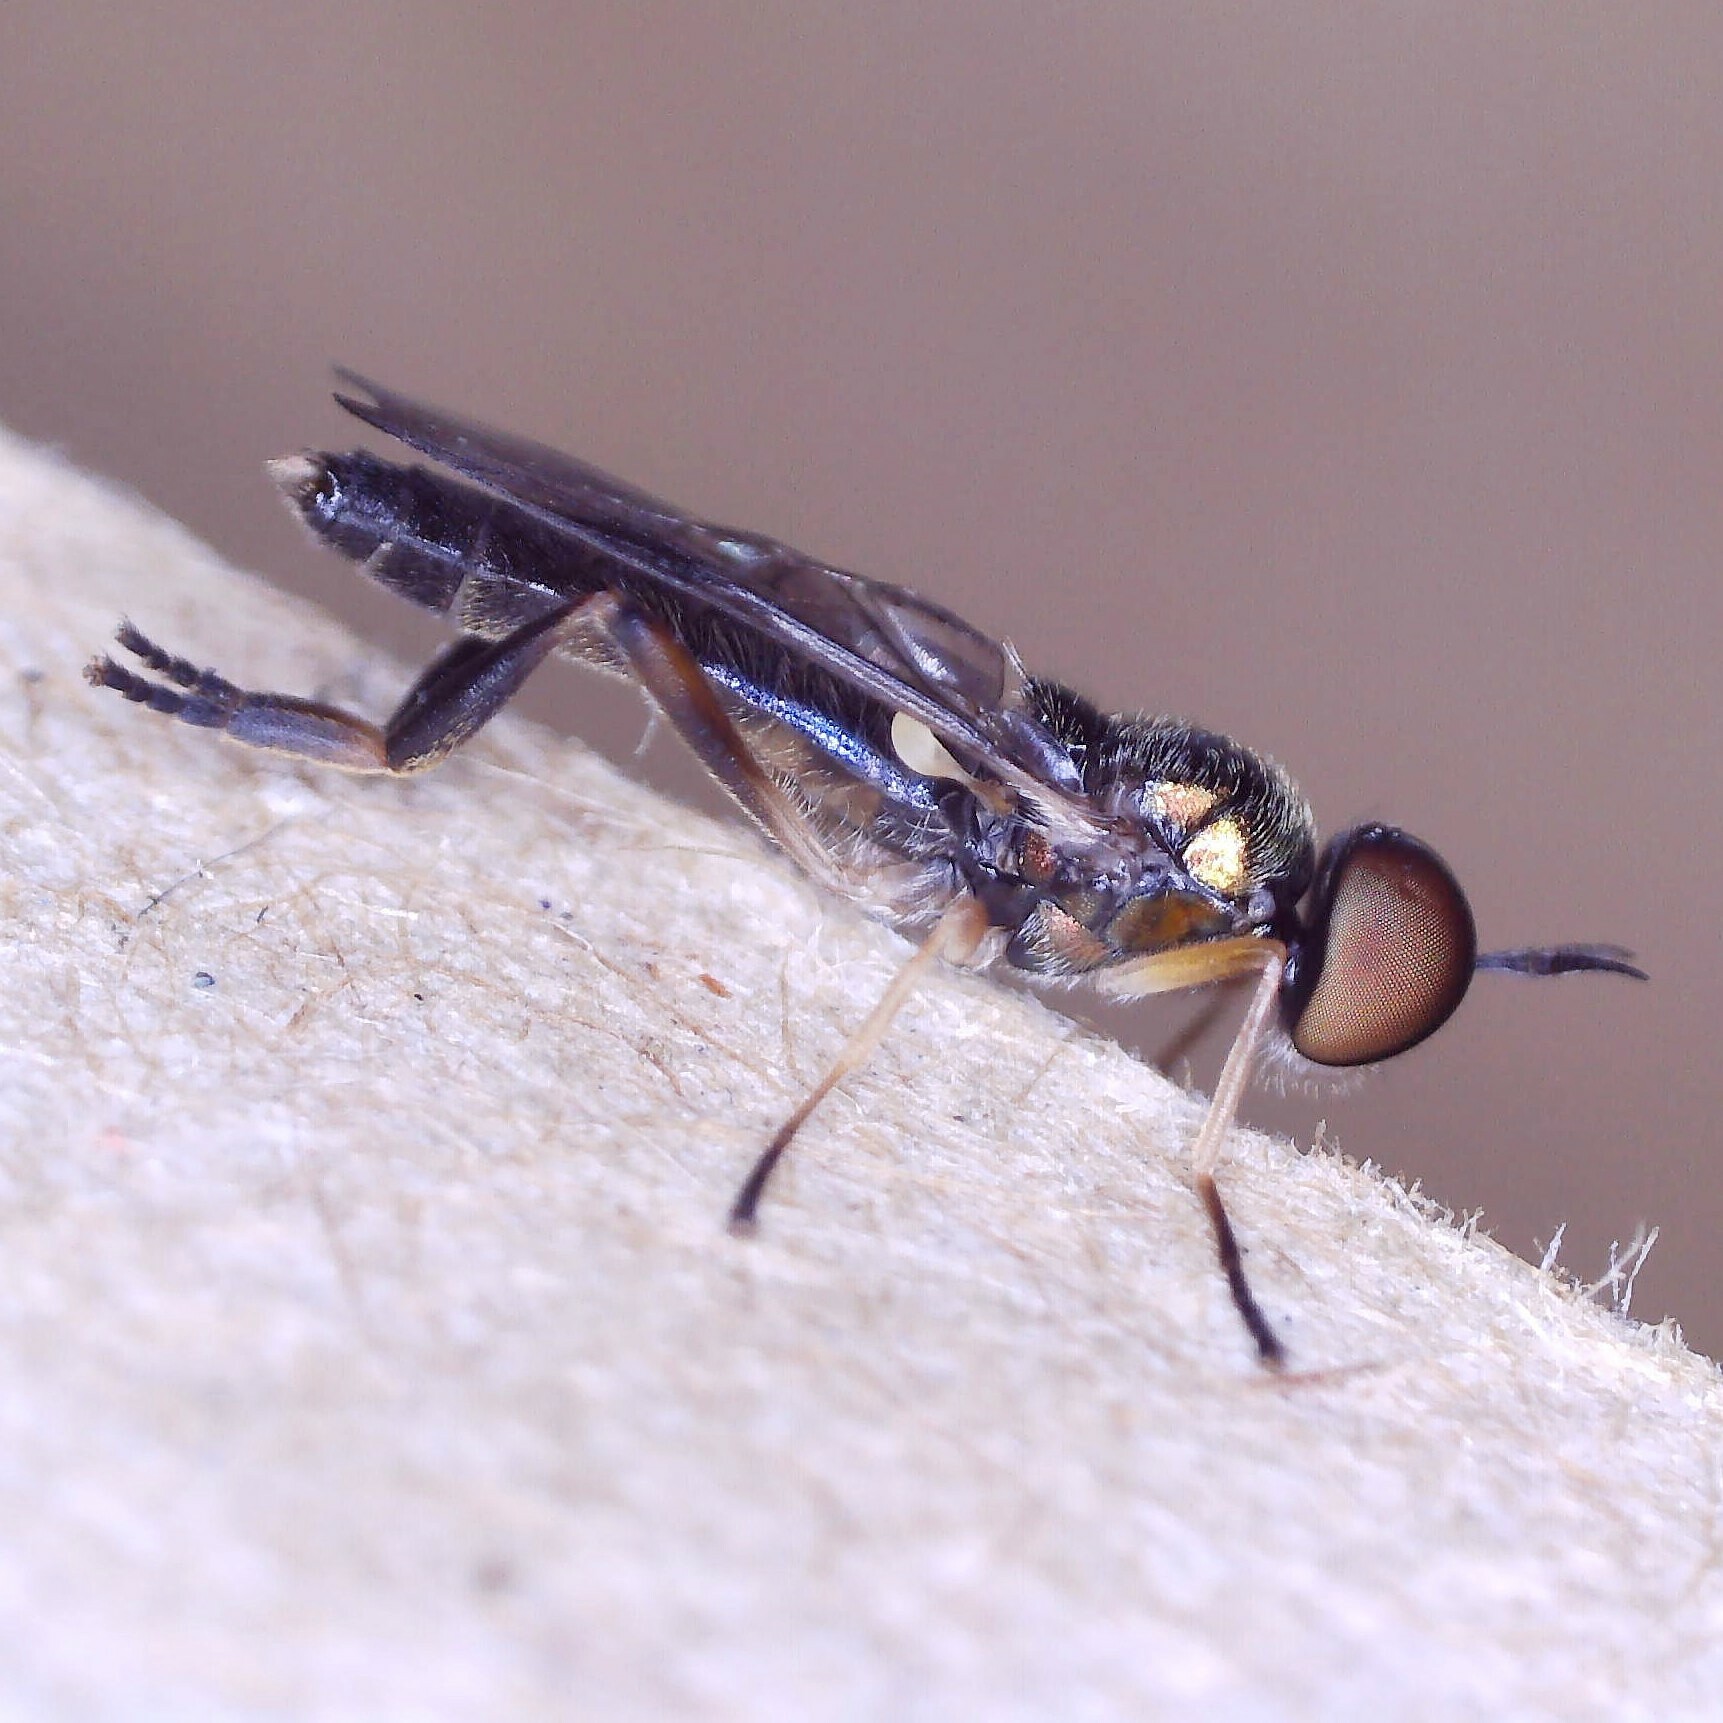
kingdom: Animalia
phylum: Arthropoda
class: Insecta
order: Diptera
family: Stratiomyidae
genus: Chorisops
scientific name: Chorisops tibialis
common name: Dull four-spined legionnaire
